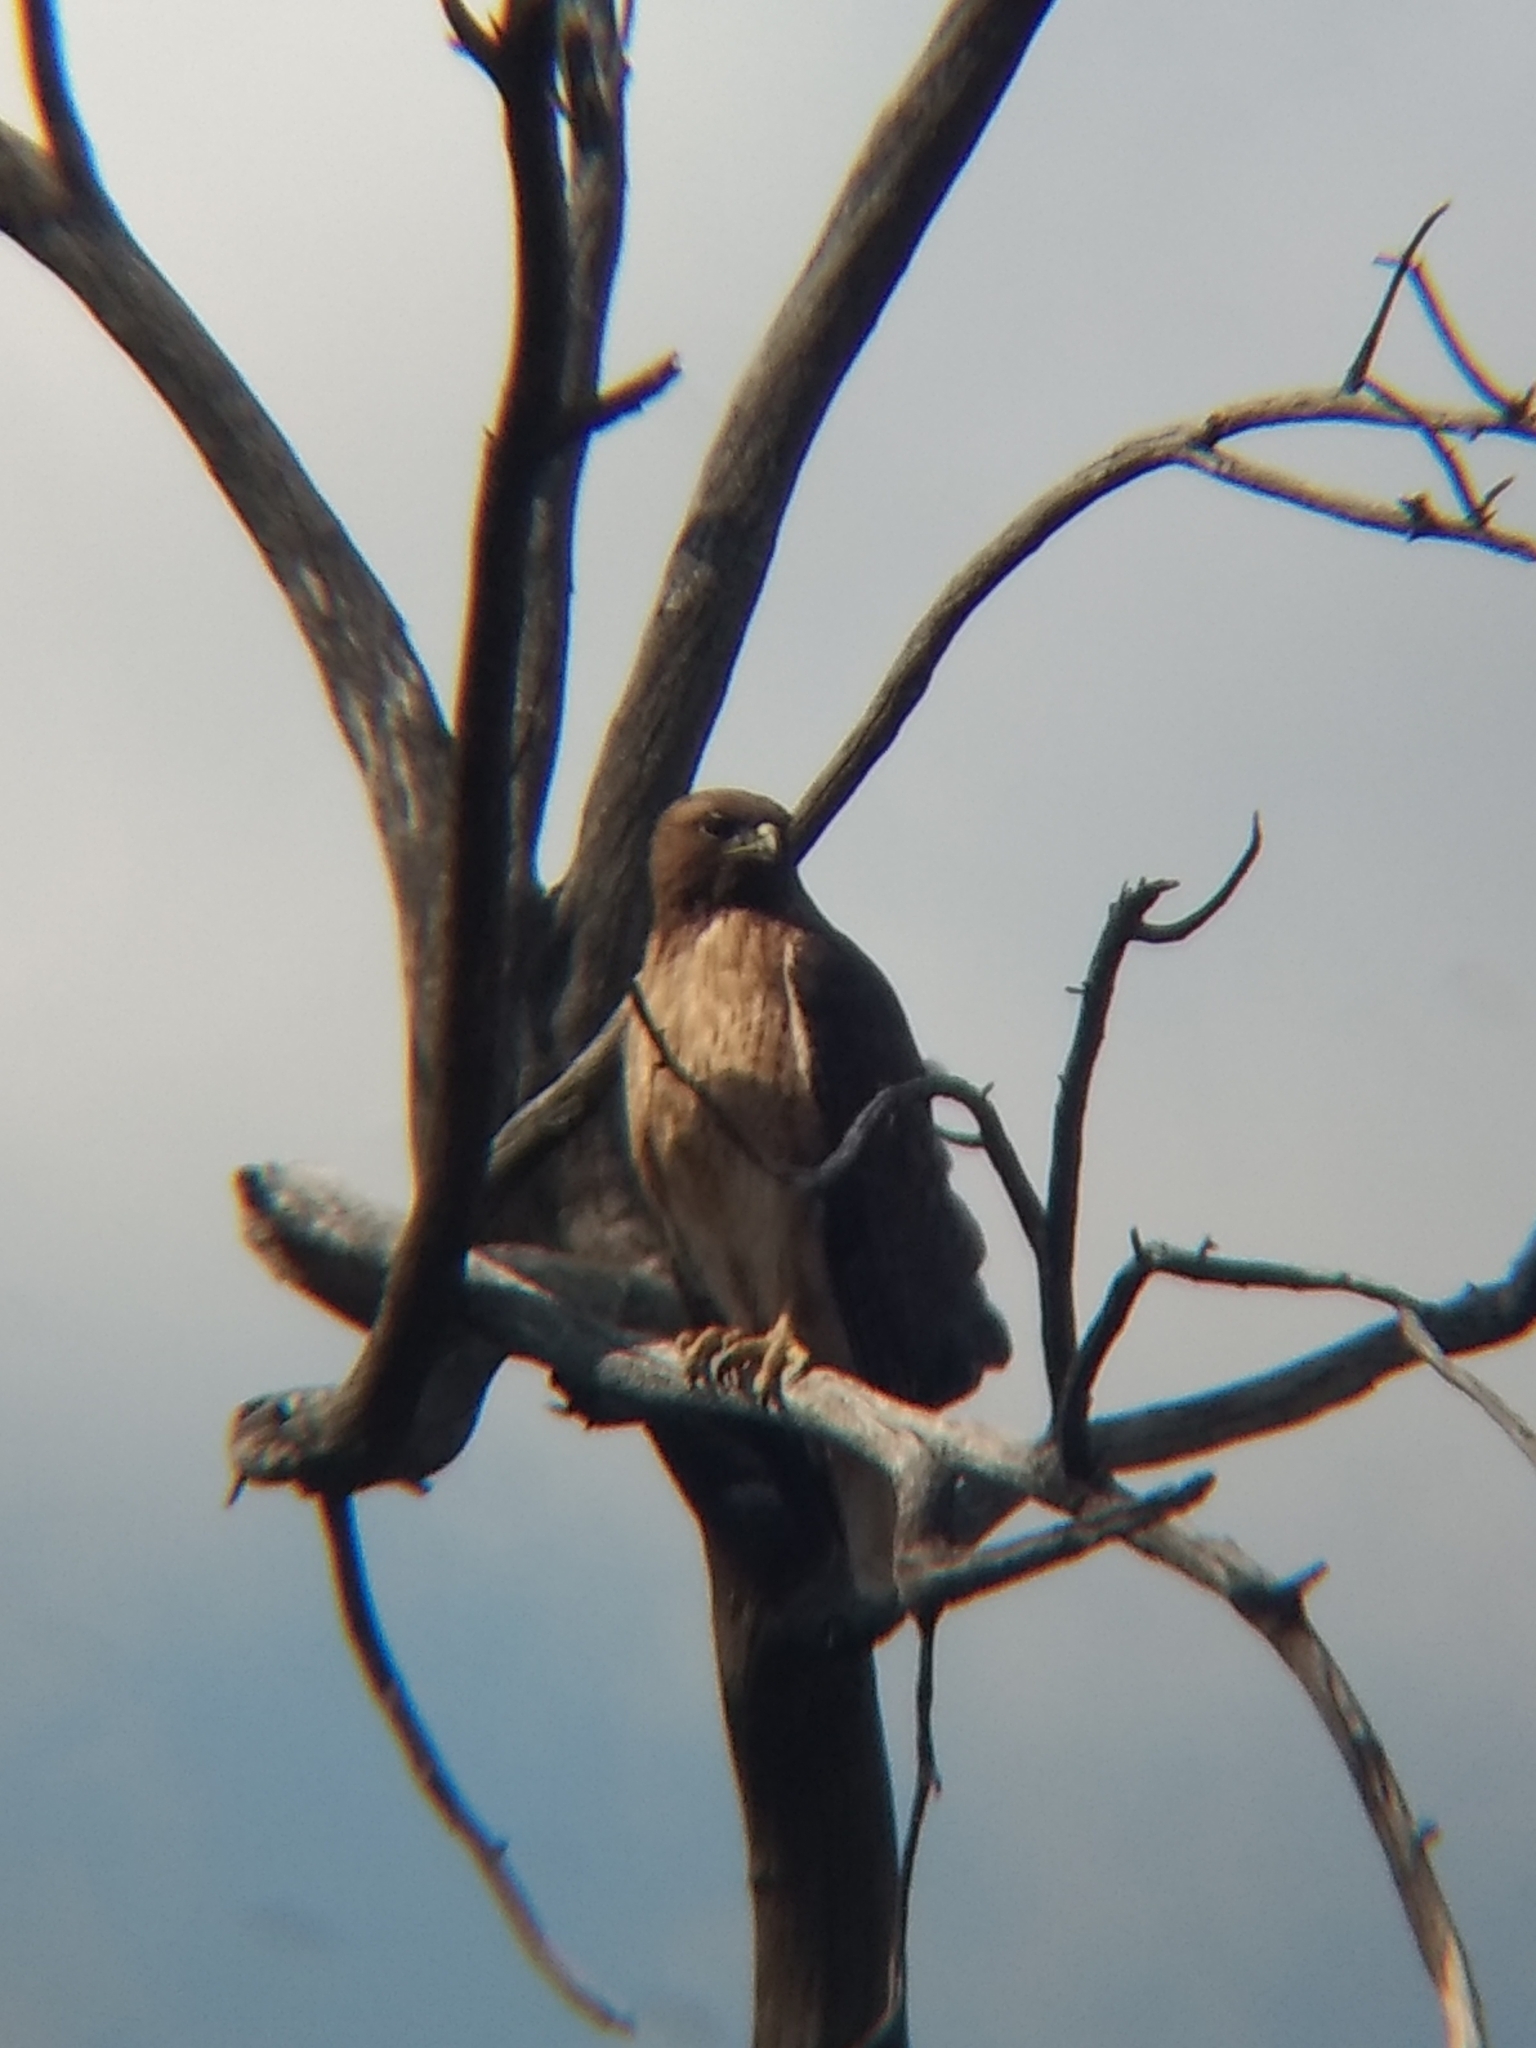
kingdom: Animalia
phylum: Chordata
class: Aves
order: Accipitriformes
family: Accipitridae
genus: Buteo
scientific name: Buteo jamaicensis
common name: Red-tailed hawk
